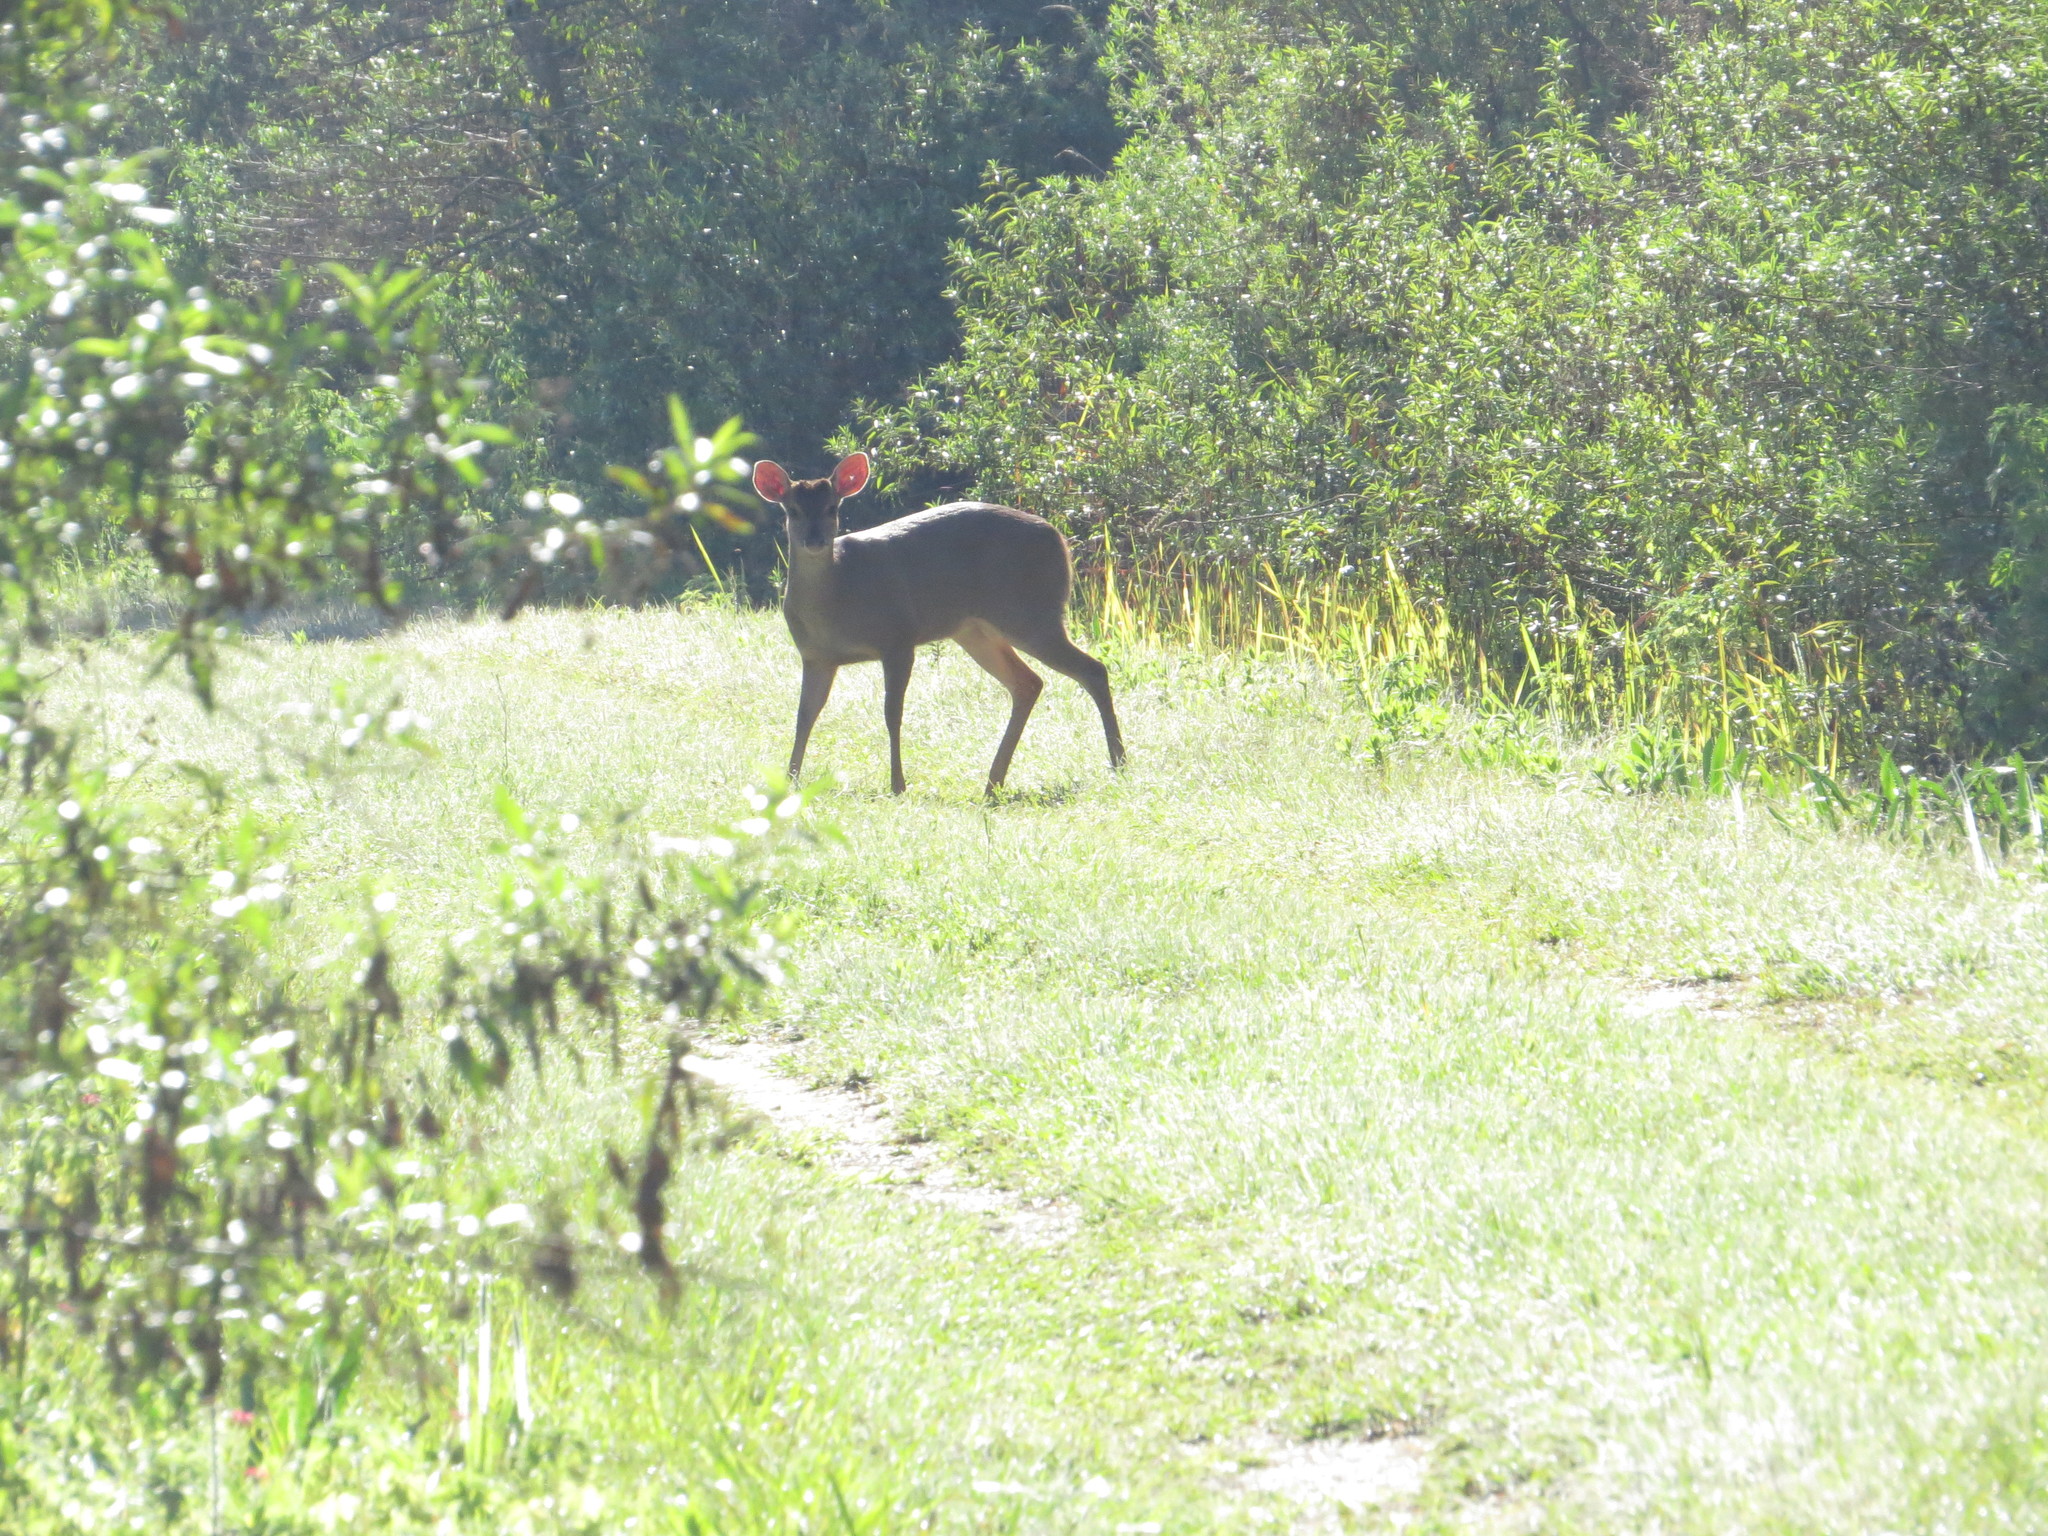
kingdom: Animalia
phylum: Chordata
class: Mammalia
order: Artiodactyla
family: Cervidae
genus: Mazama
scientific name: Mazama gouazoubira
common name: Gray brocket
